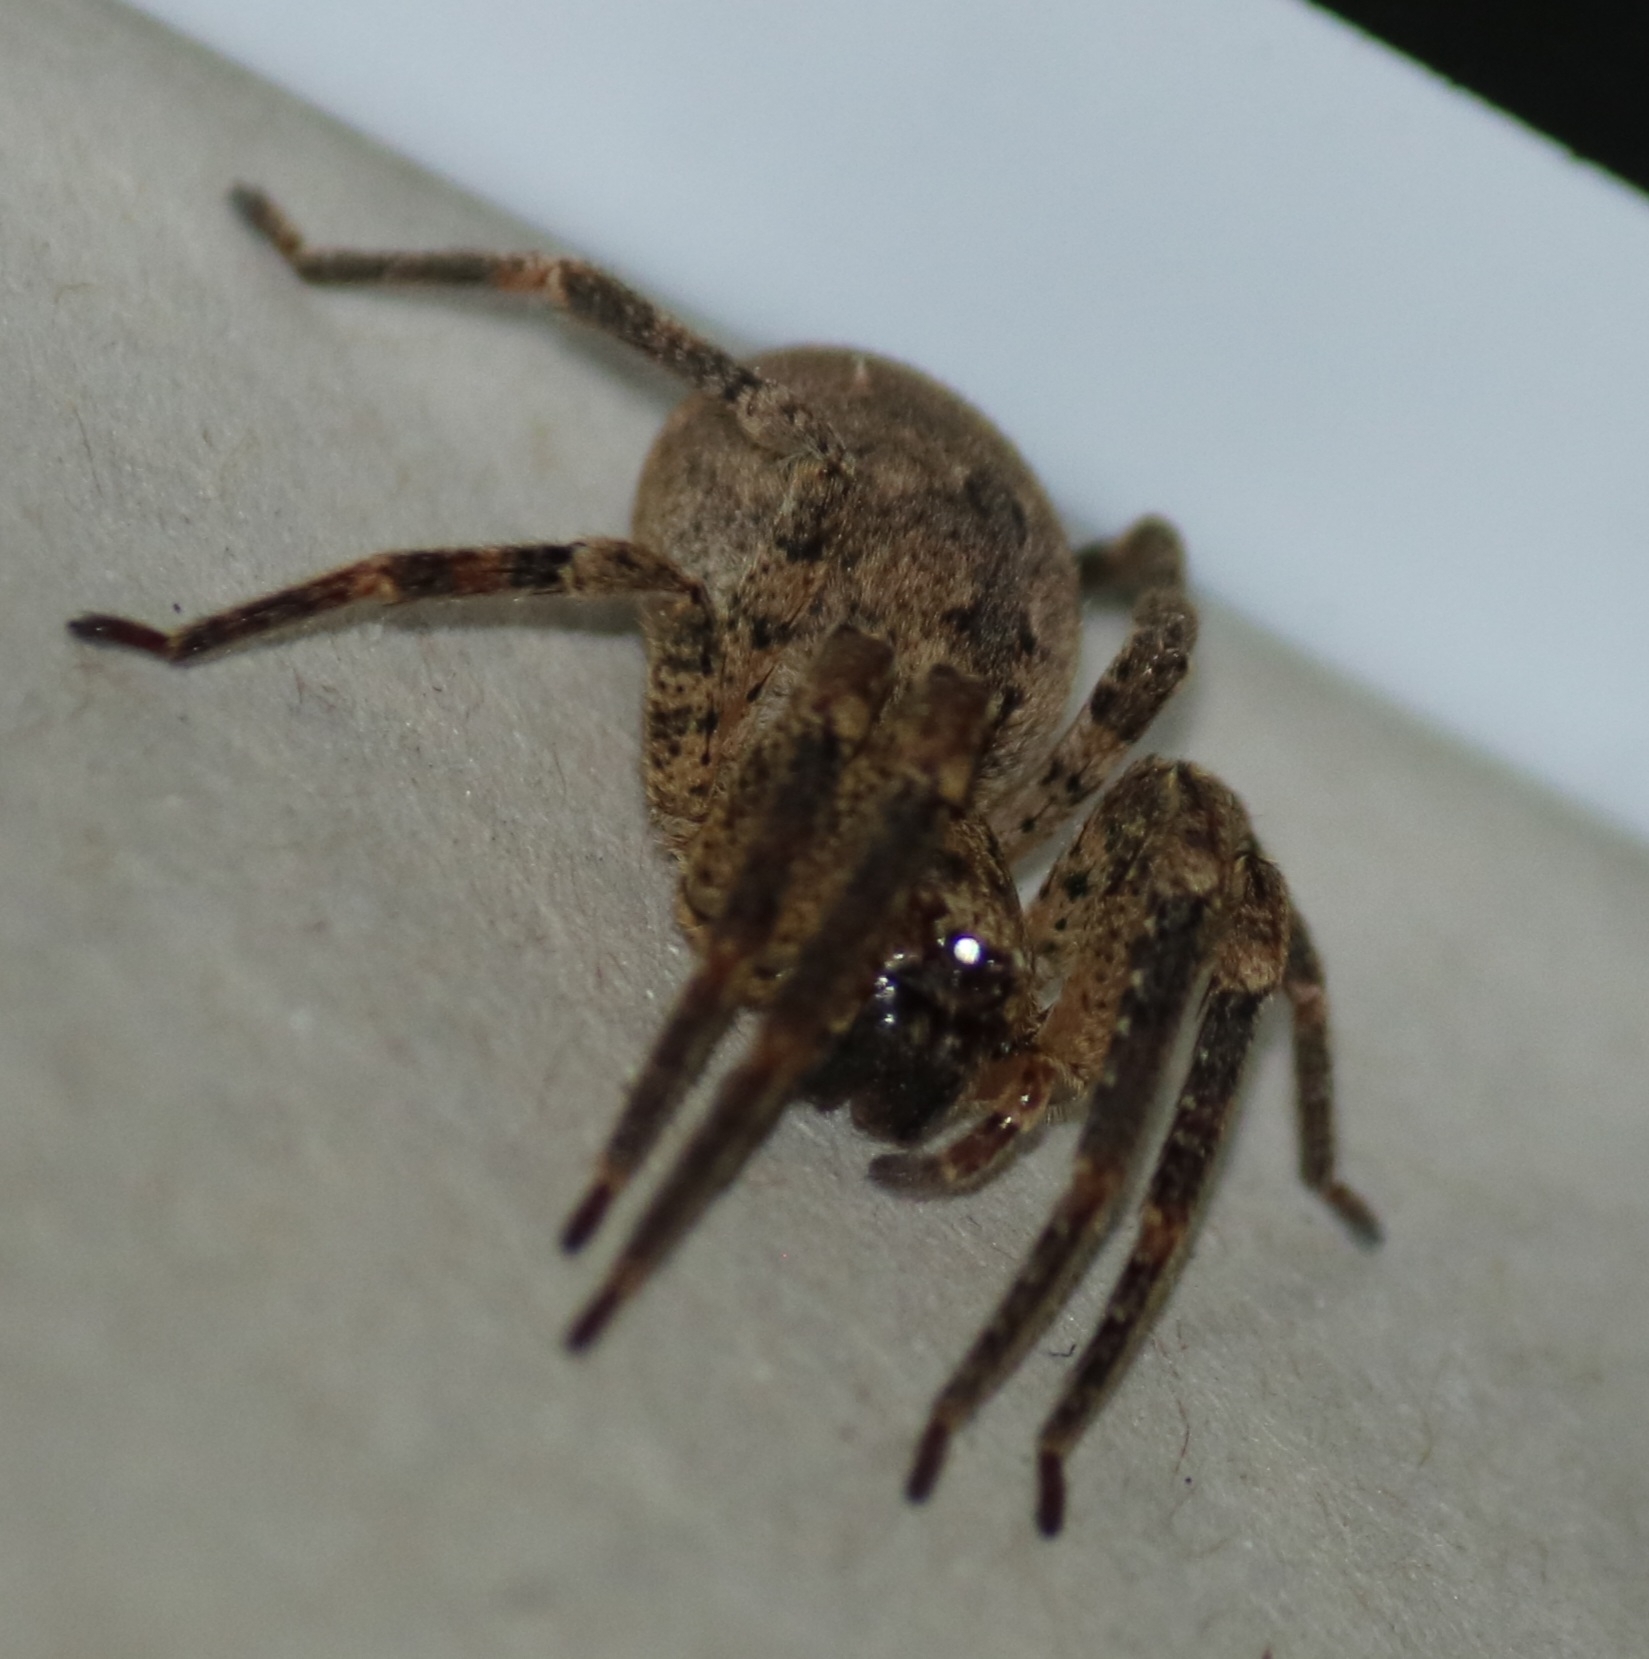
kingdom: Animalia
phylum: Arthropoda
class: Arachnida
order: Araneae
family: Zoropsidae
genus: Zoropsis
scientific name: Zoropsis spinimana
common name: Zoropsid spider
